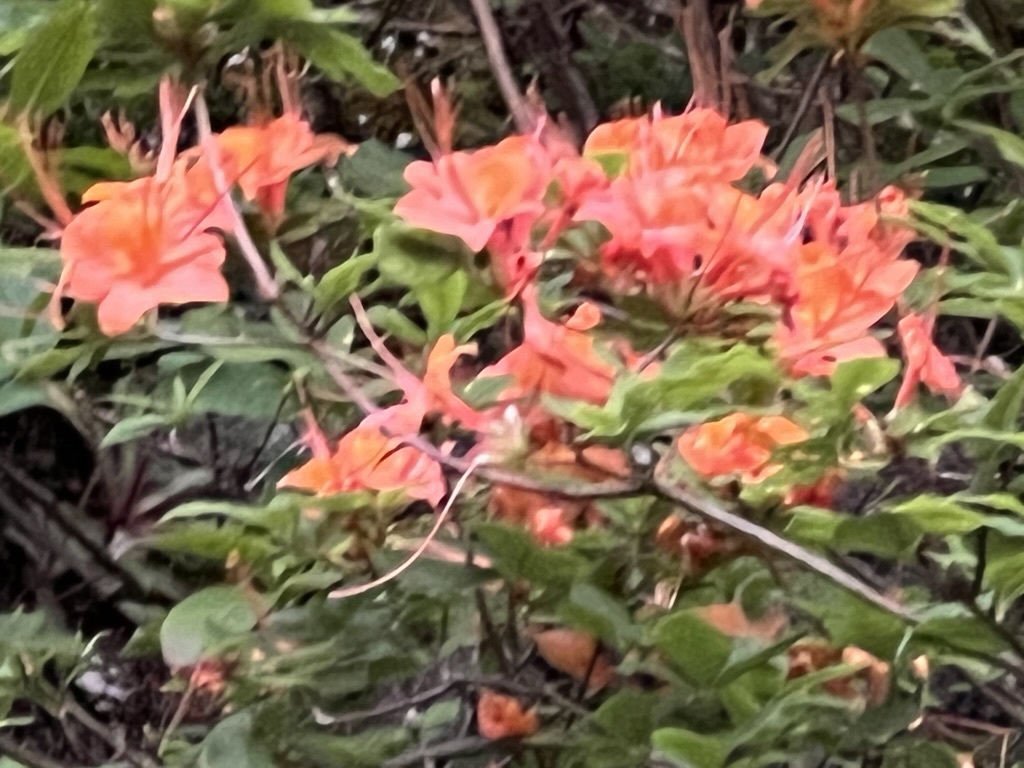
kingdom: Plantae
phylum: Tracheophyta
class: Magnoliopsida
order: Ericales
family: Ericaceae
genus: Rhododendron
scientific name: Rhododendron calendulaceum
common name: Flame azalea
